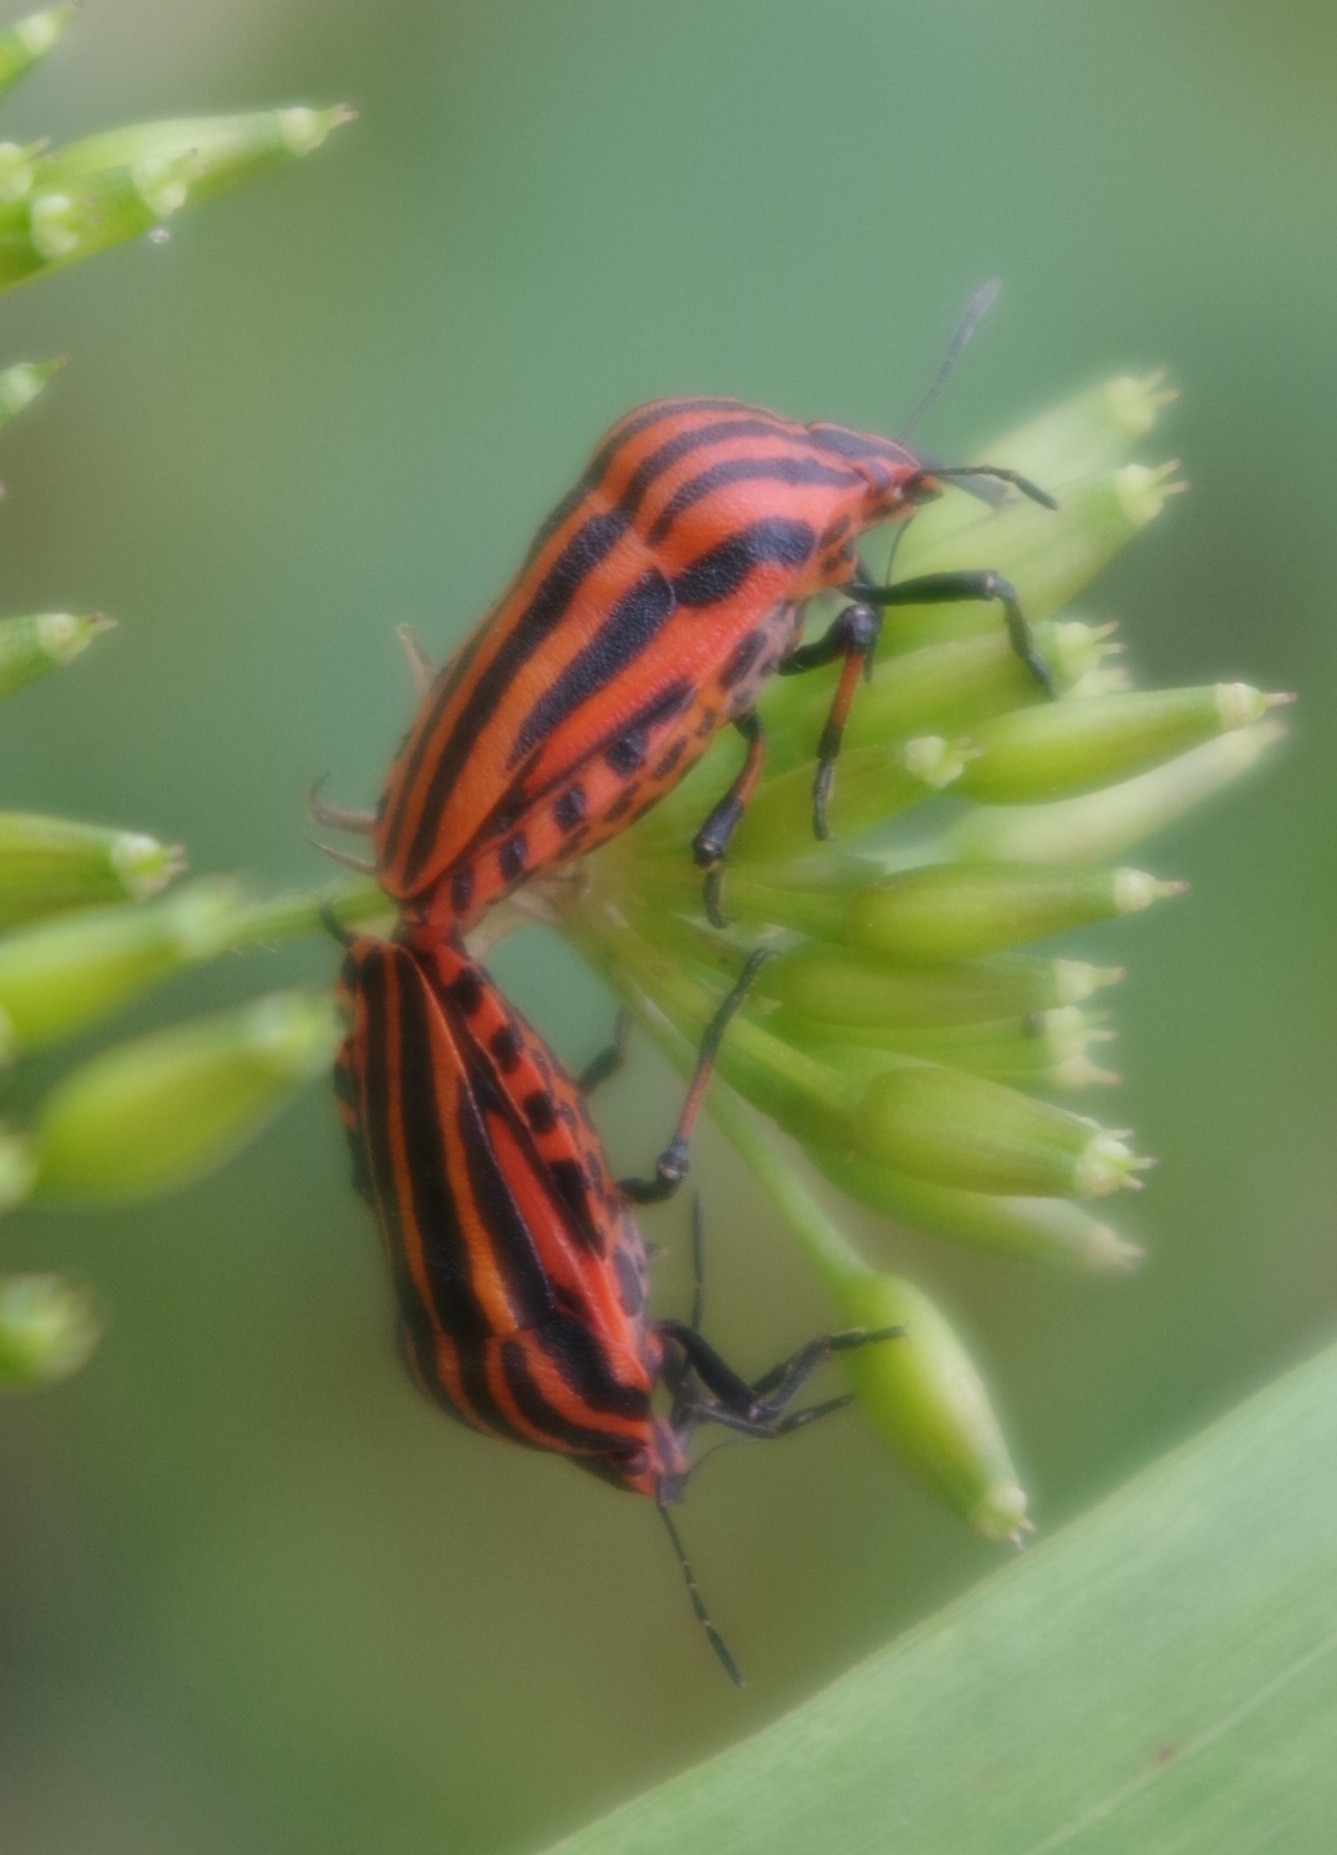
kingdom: Animalia
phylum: Arthropoda
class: Insecta
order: Hemiptera
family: Pentatomidae
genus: Graphosoma
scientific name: Graphosoma italicum
